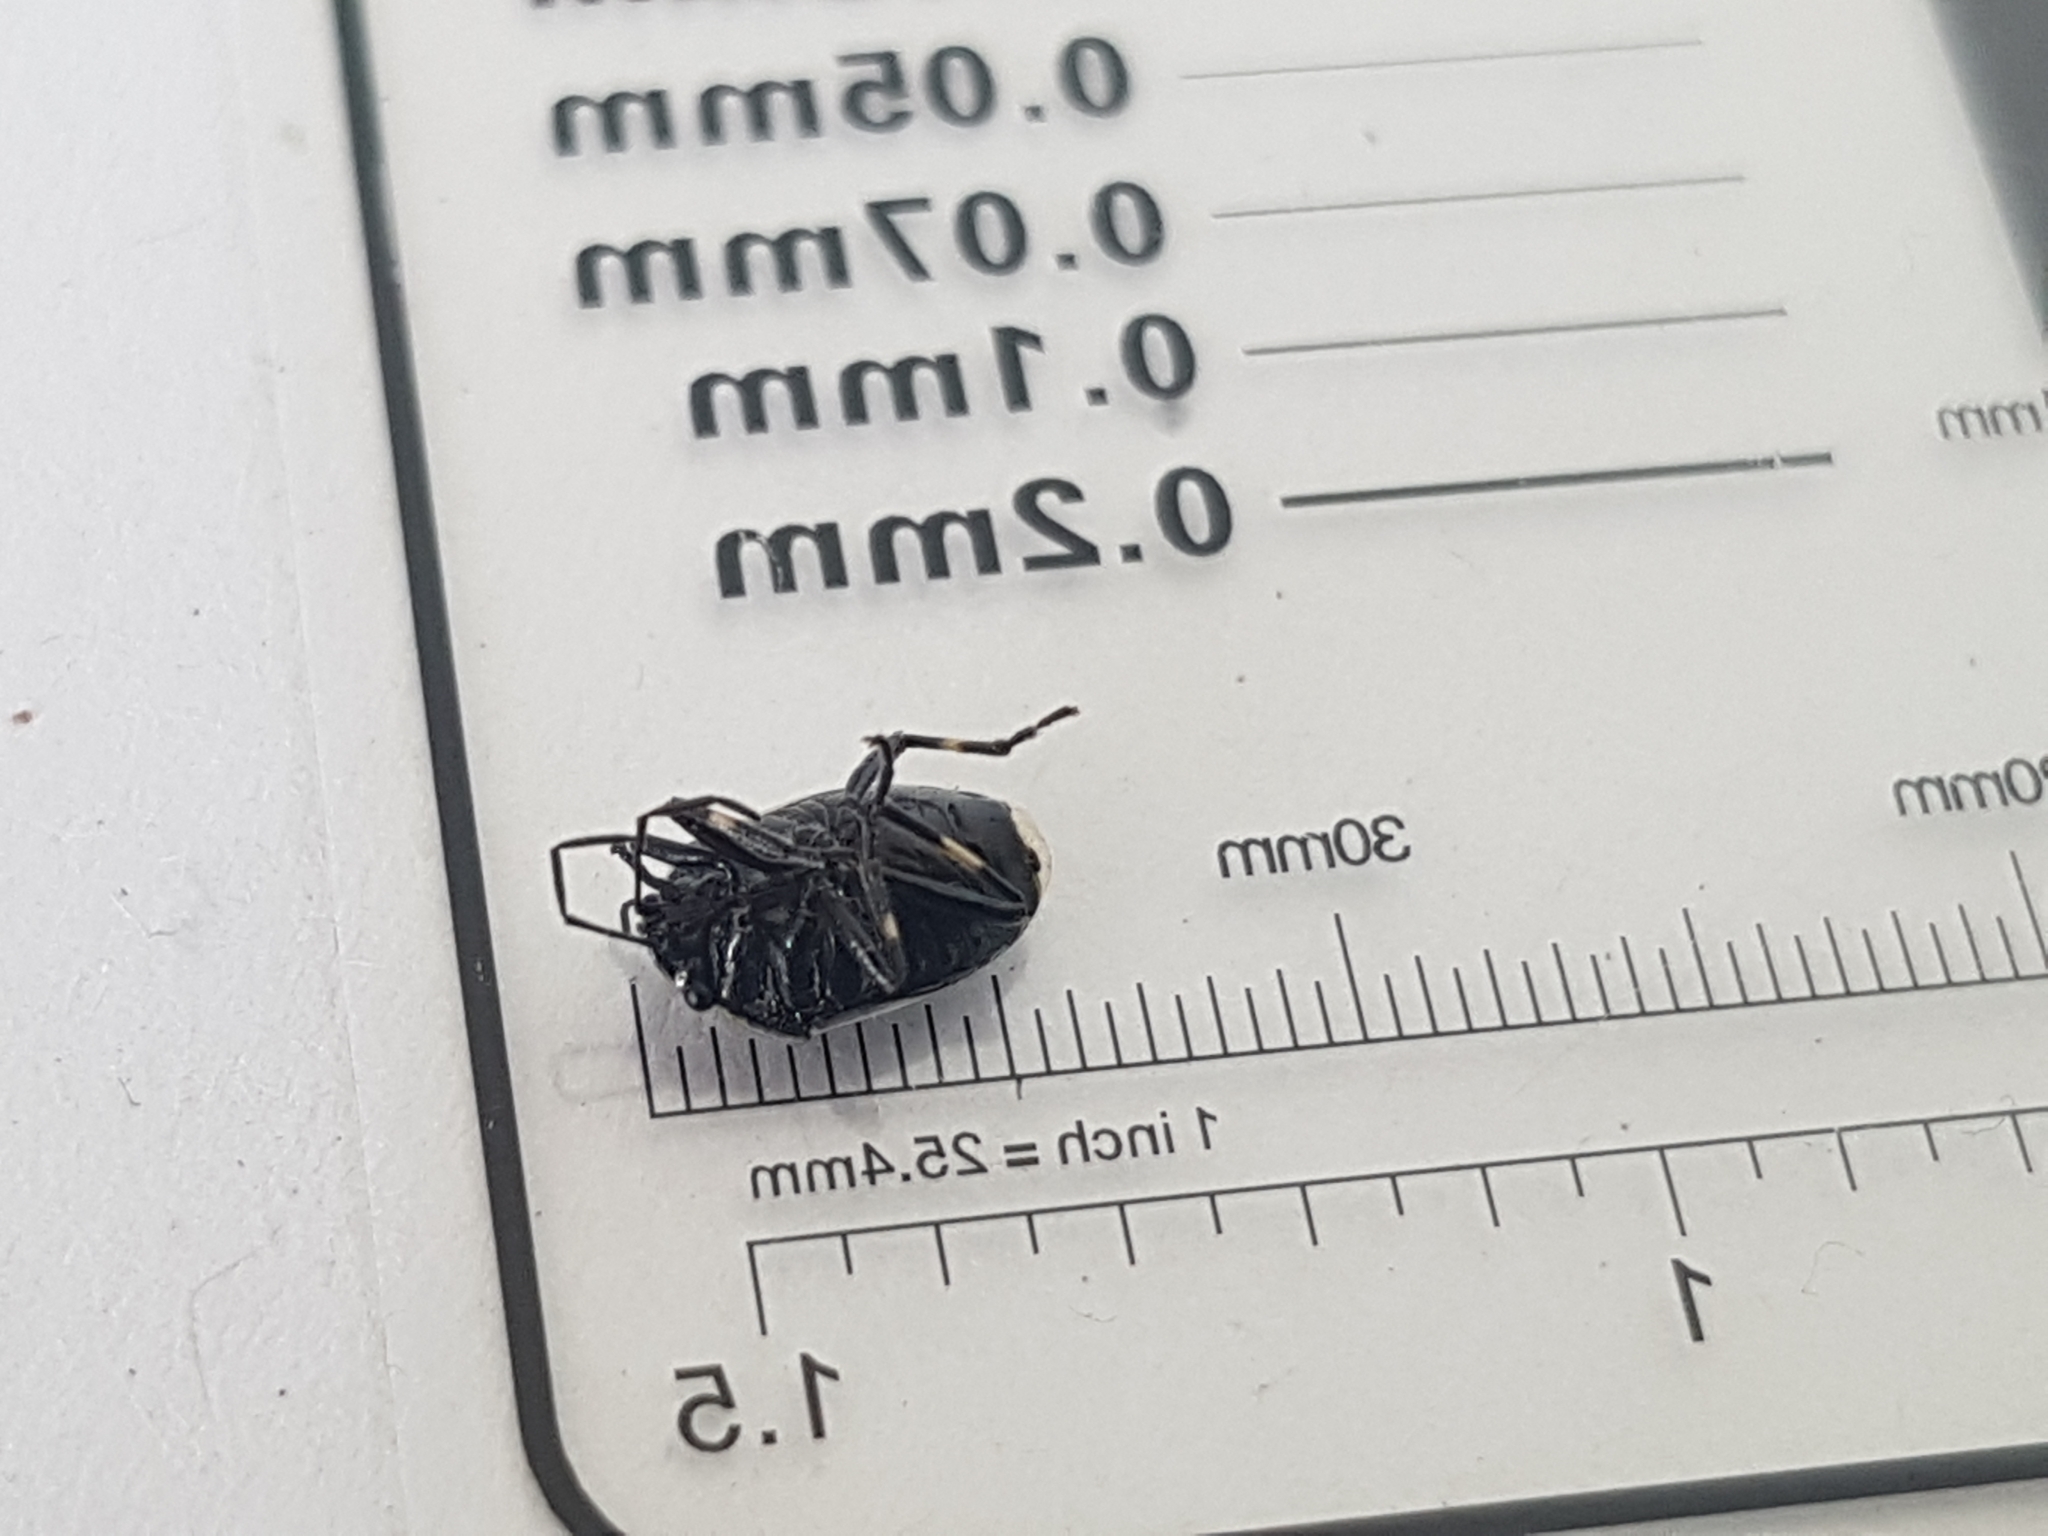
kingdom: Animalia
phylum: Arthropoda
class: Insecta
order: Hemiptera
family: Pentatomidae
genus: Eurydema
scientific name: Eurydema oleracea
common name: Cabbage bug
